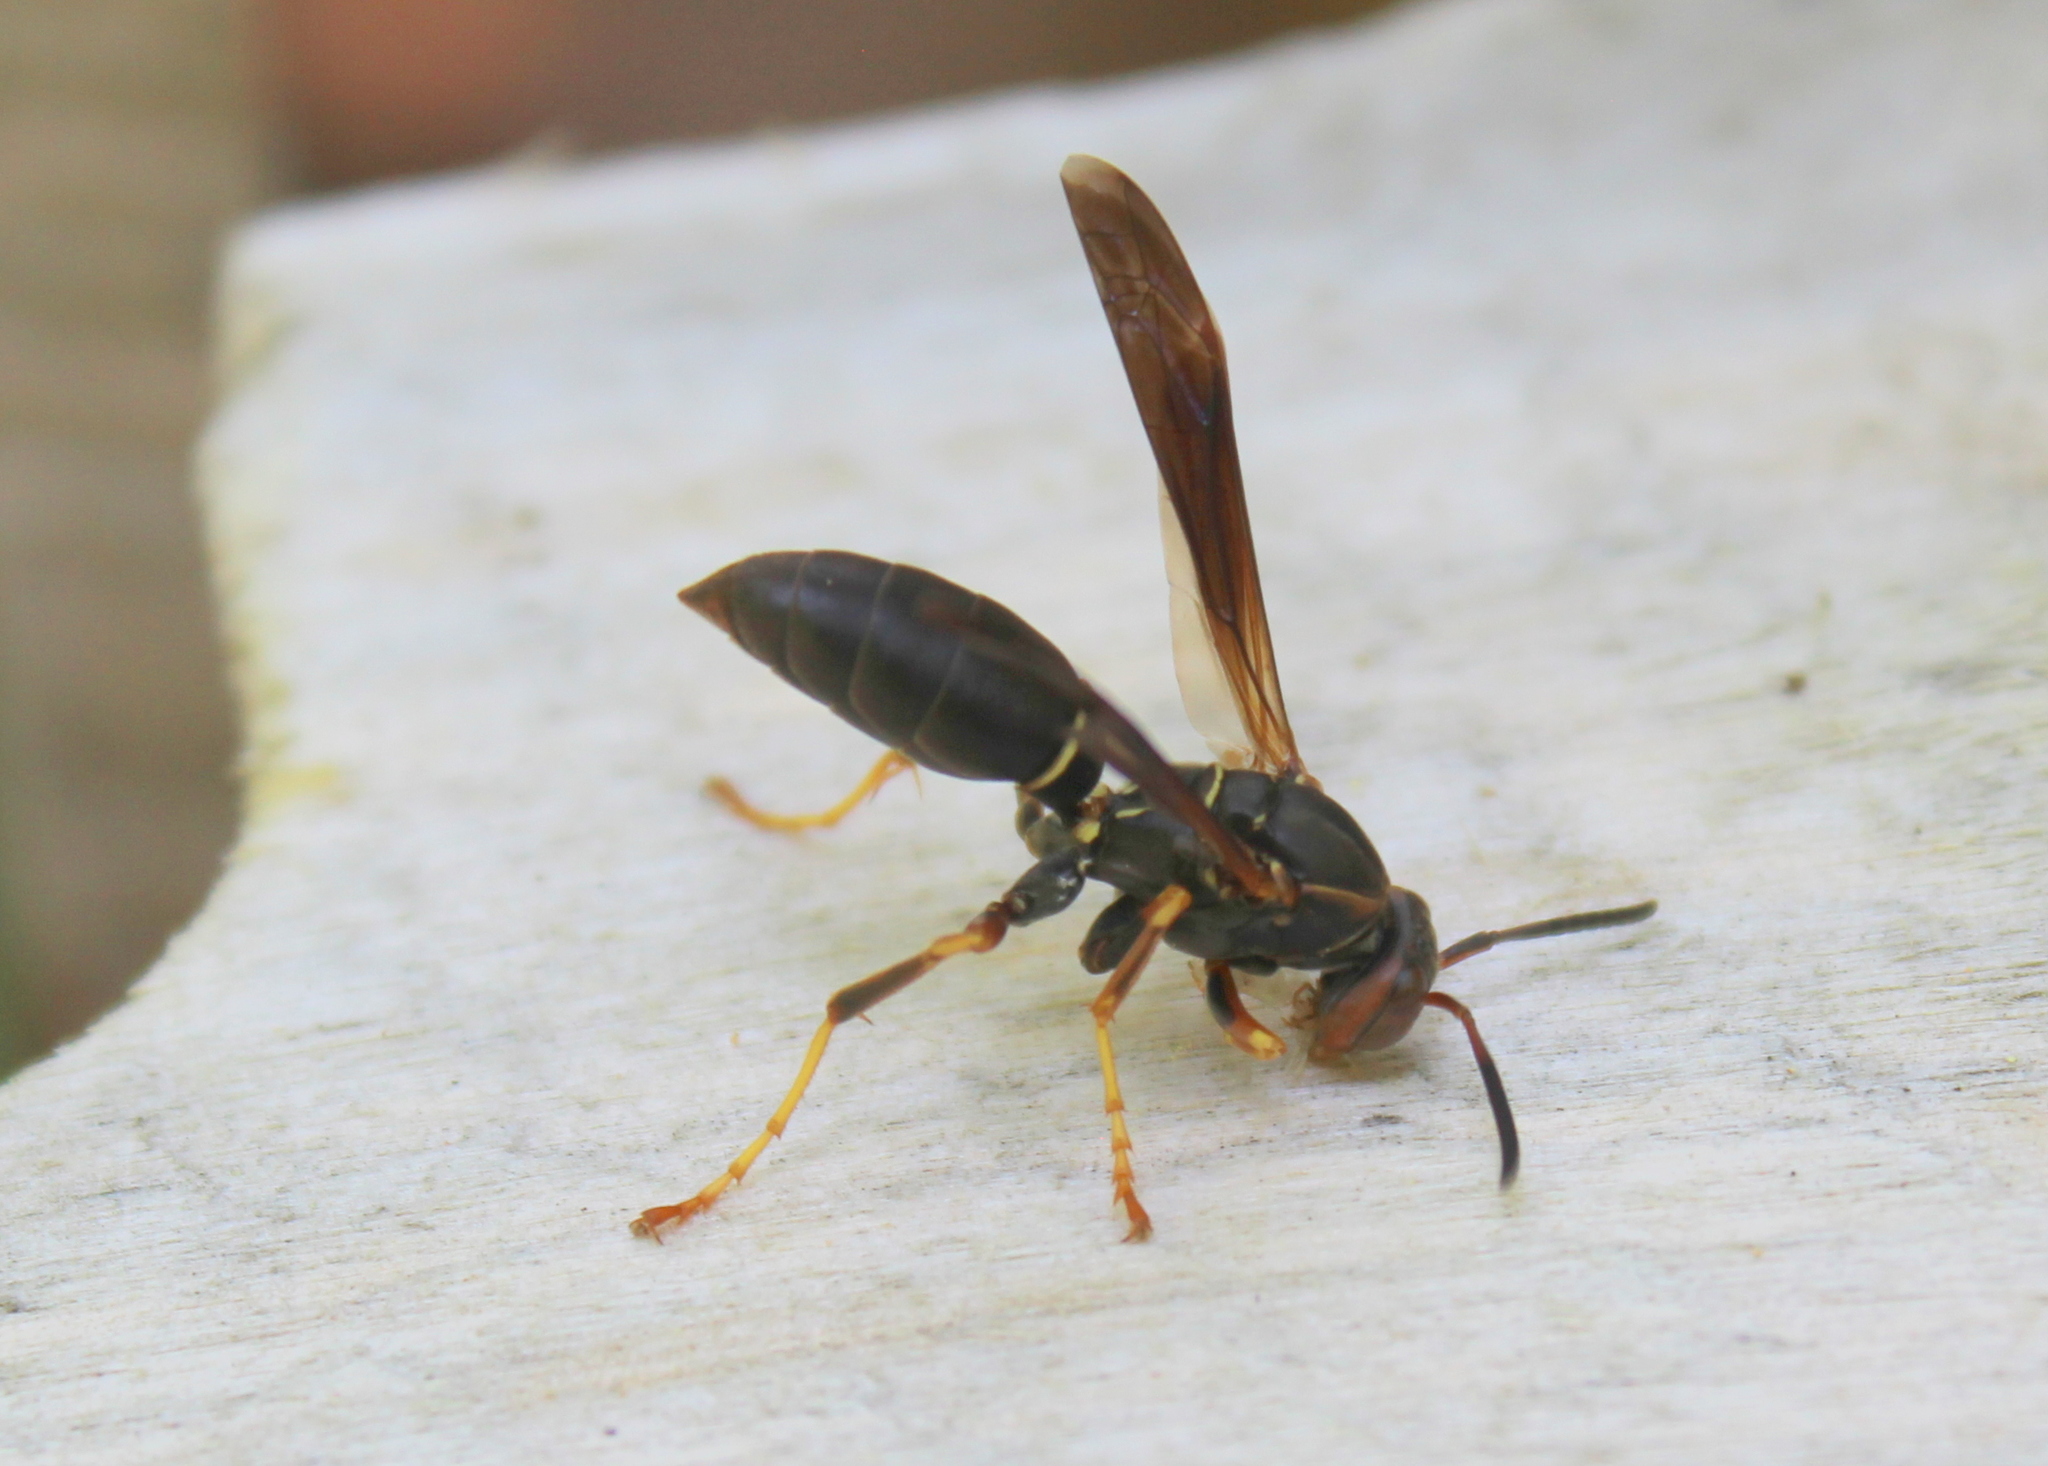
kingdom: Animalia
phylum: Arthropoda
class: Insecta
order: Hymenoptera
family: Eumenidae
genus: Polistes
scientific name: Polistes fuscatus
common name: Dark paper wasp
